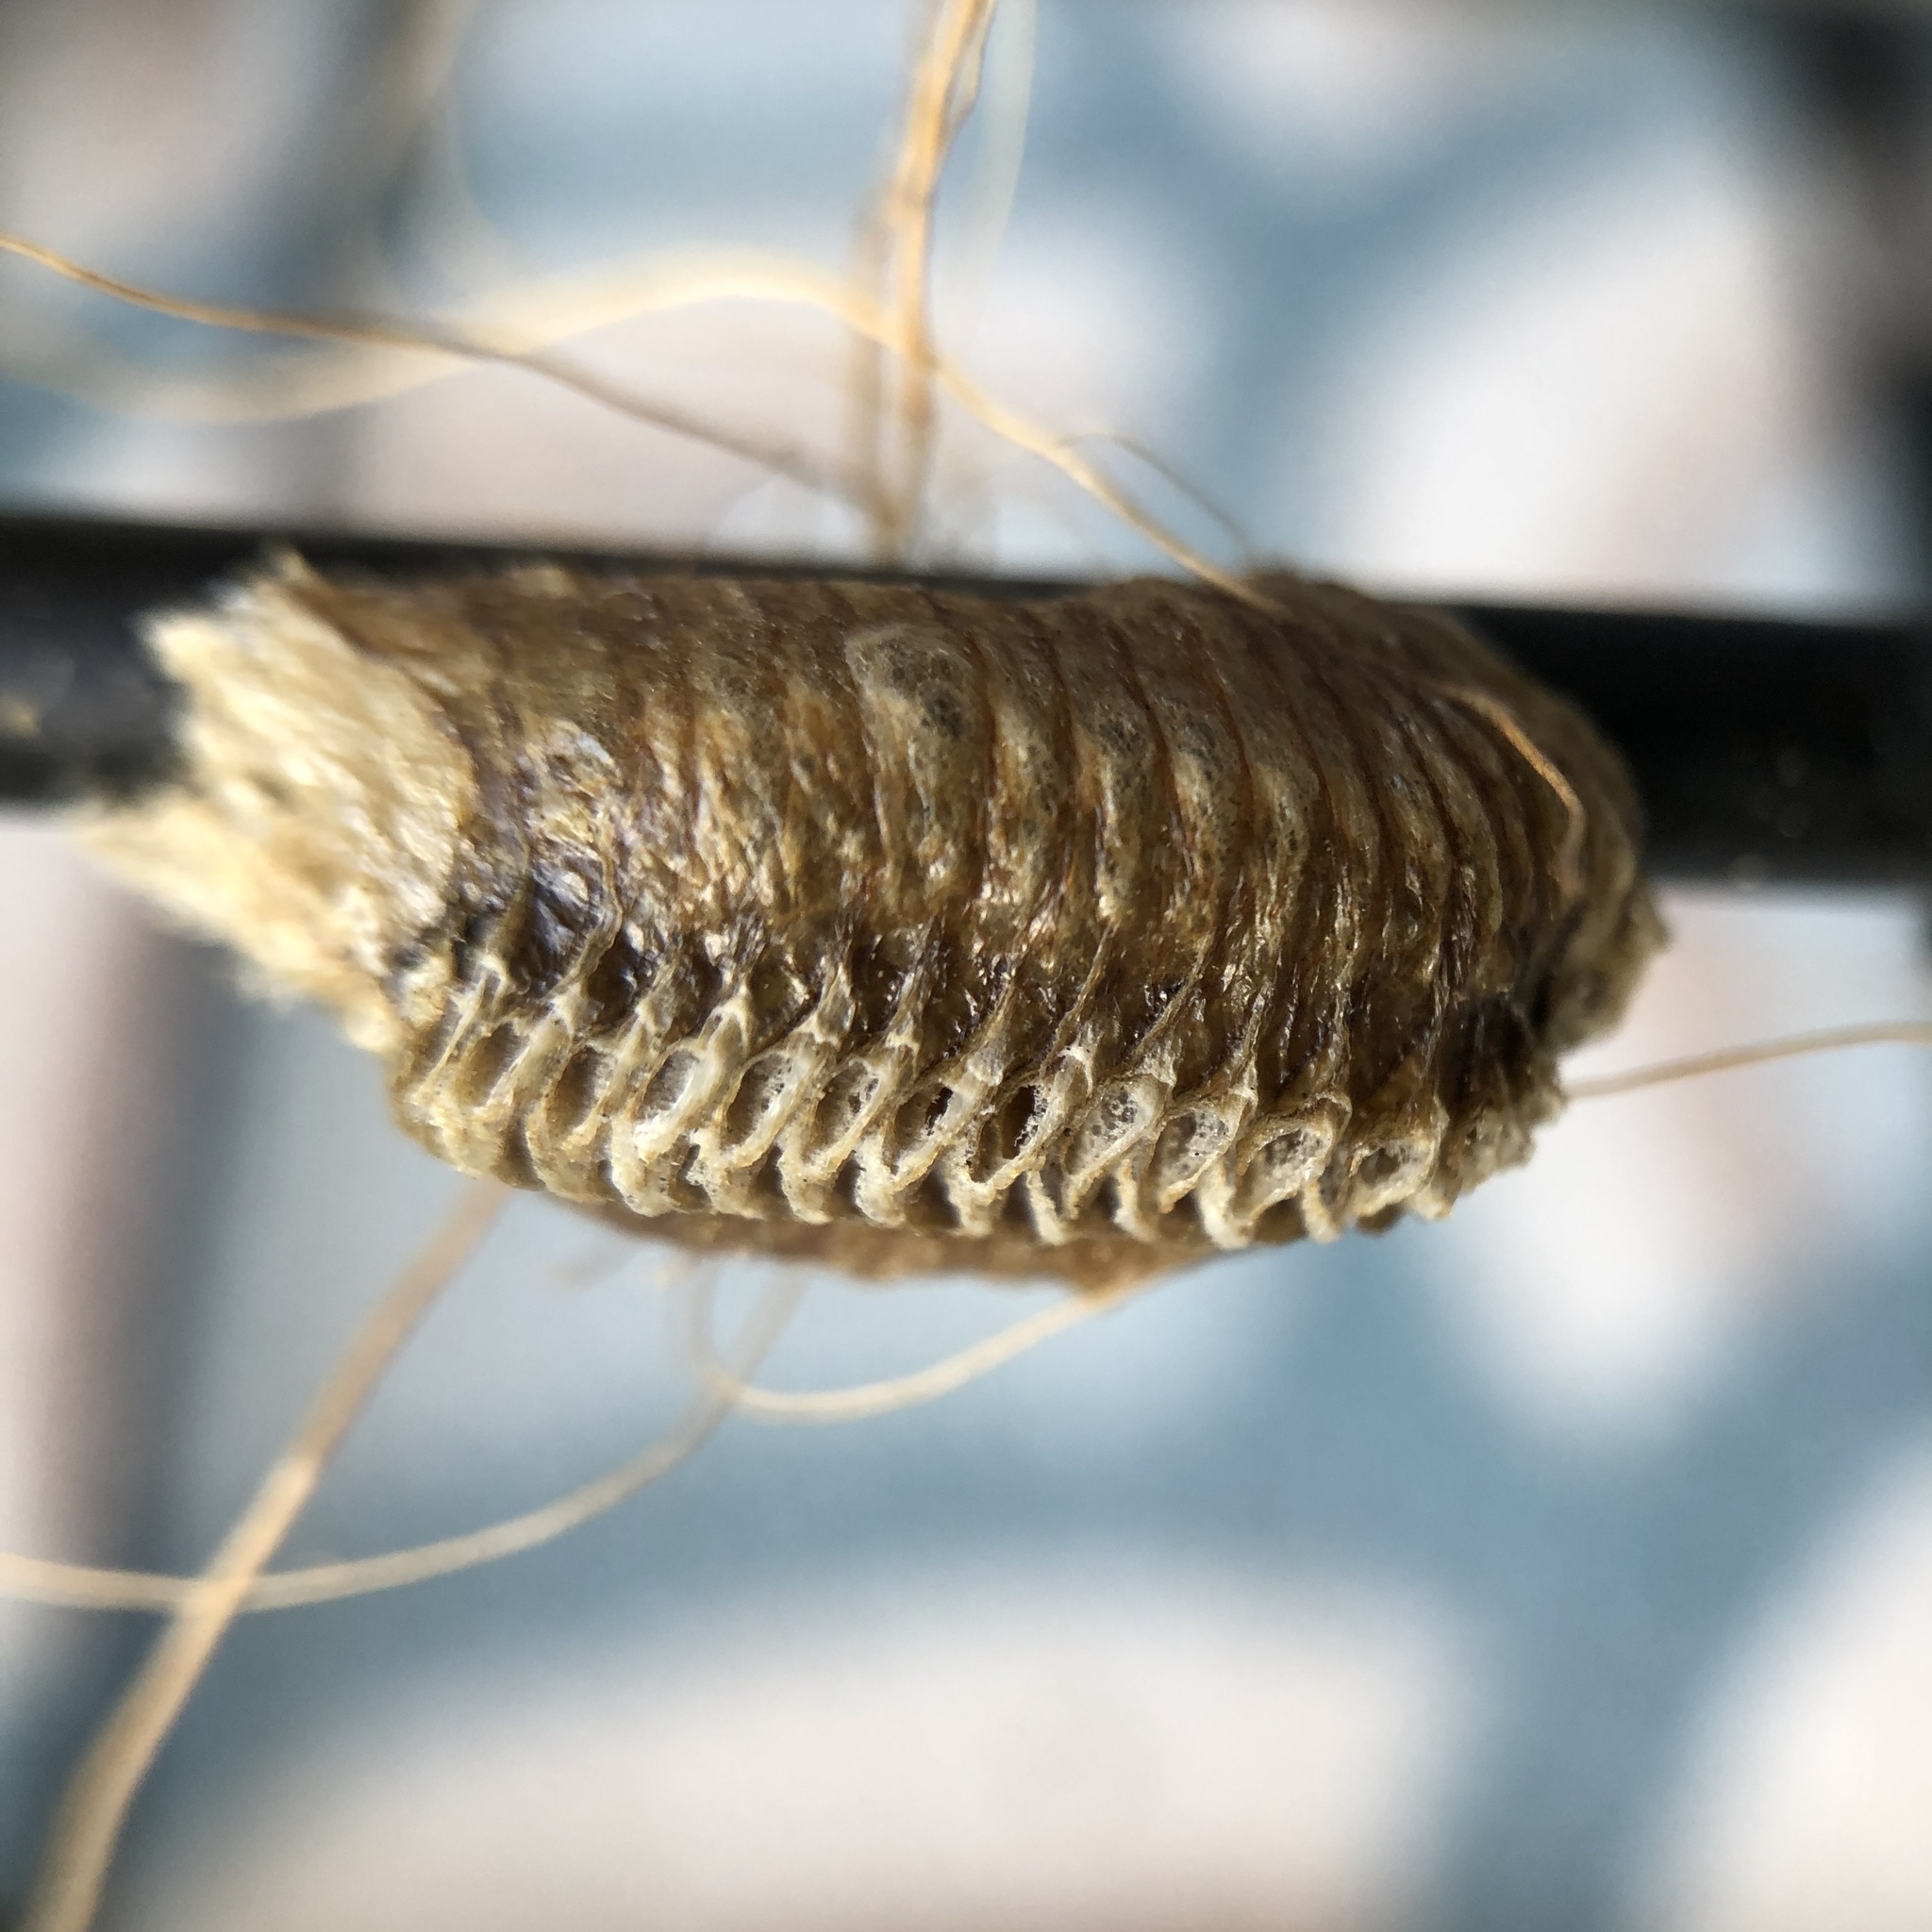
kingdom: Animalia
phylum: Arthropoda
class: Insecta
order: Mantodea
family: Mantidae
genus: Stagmomantis
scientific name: Stagmomantis carolina
